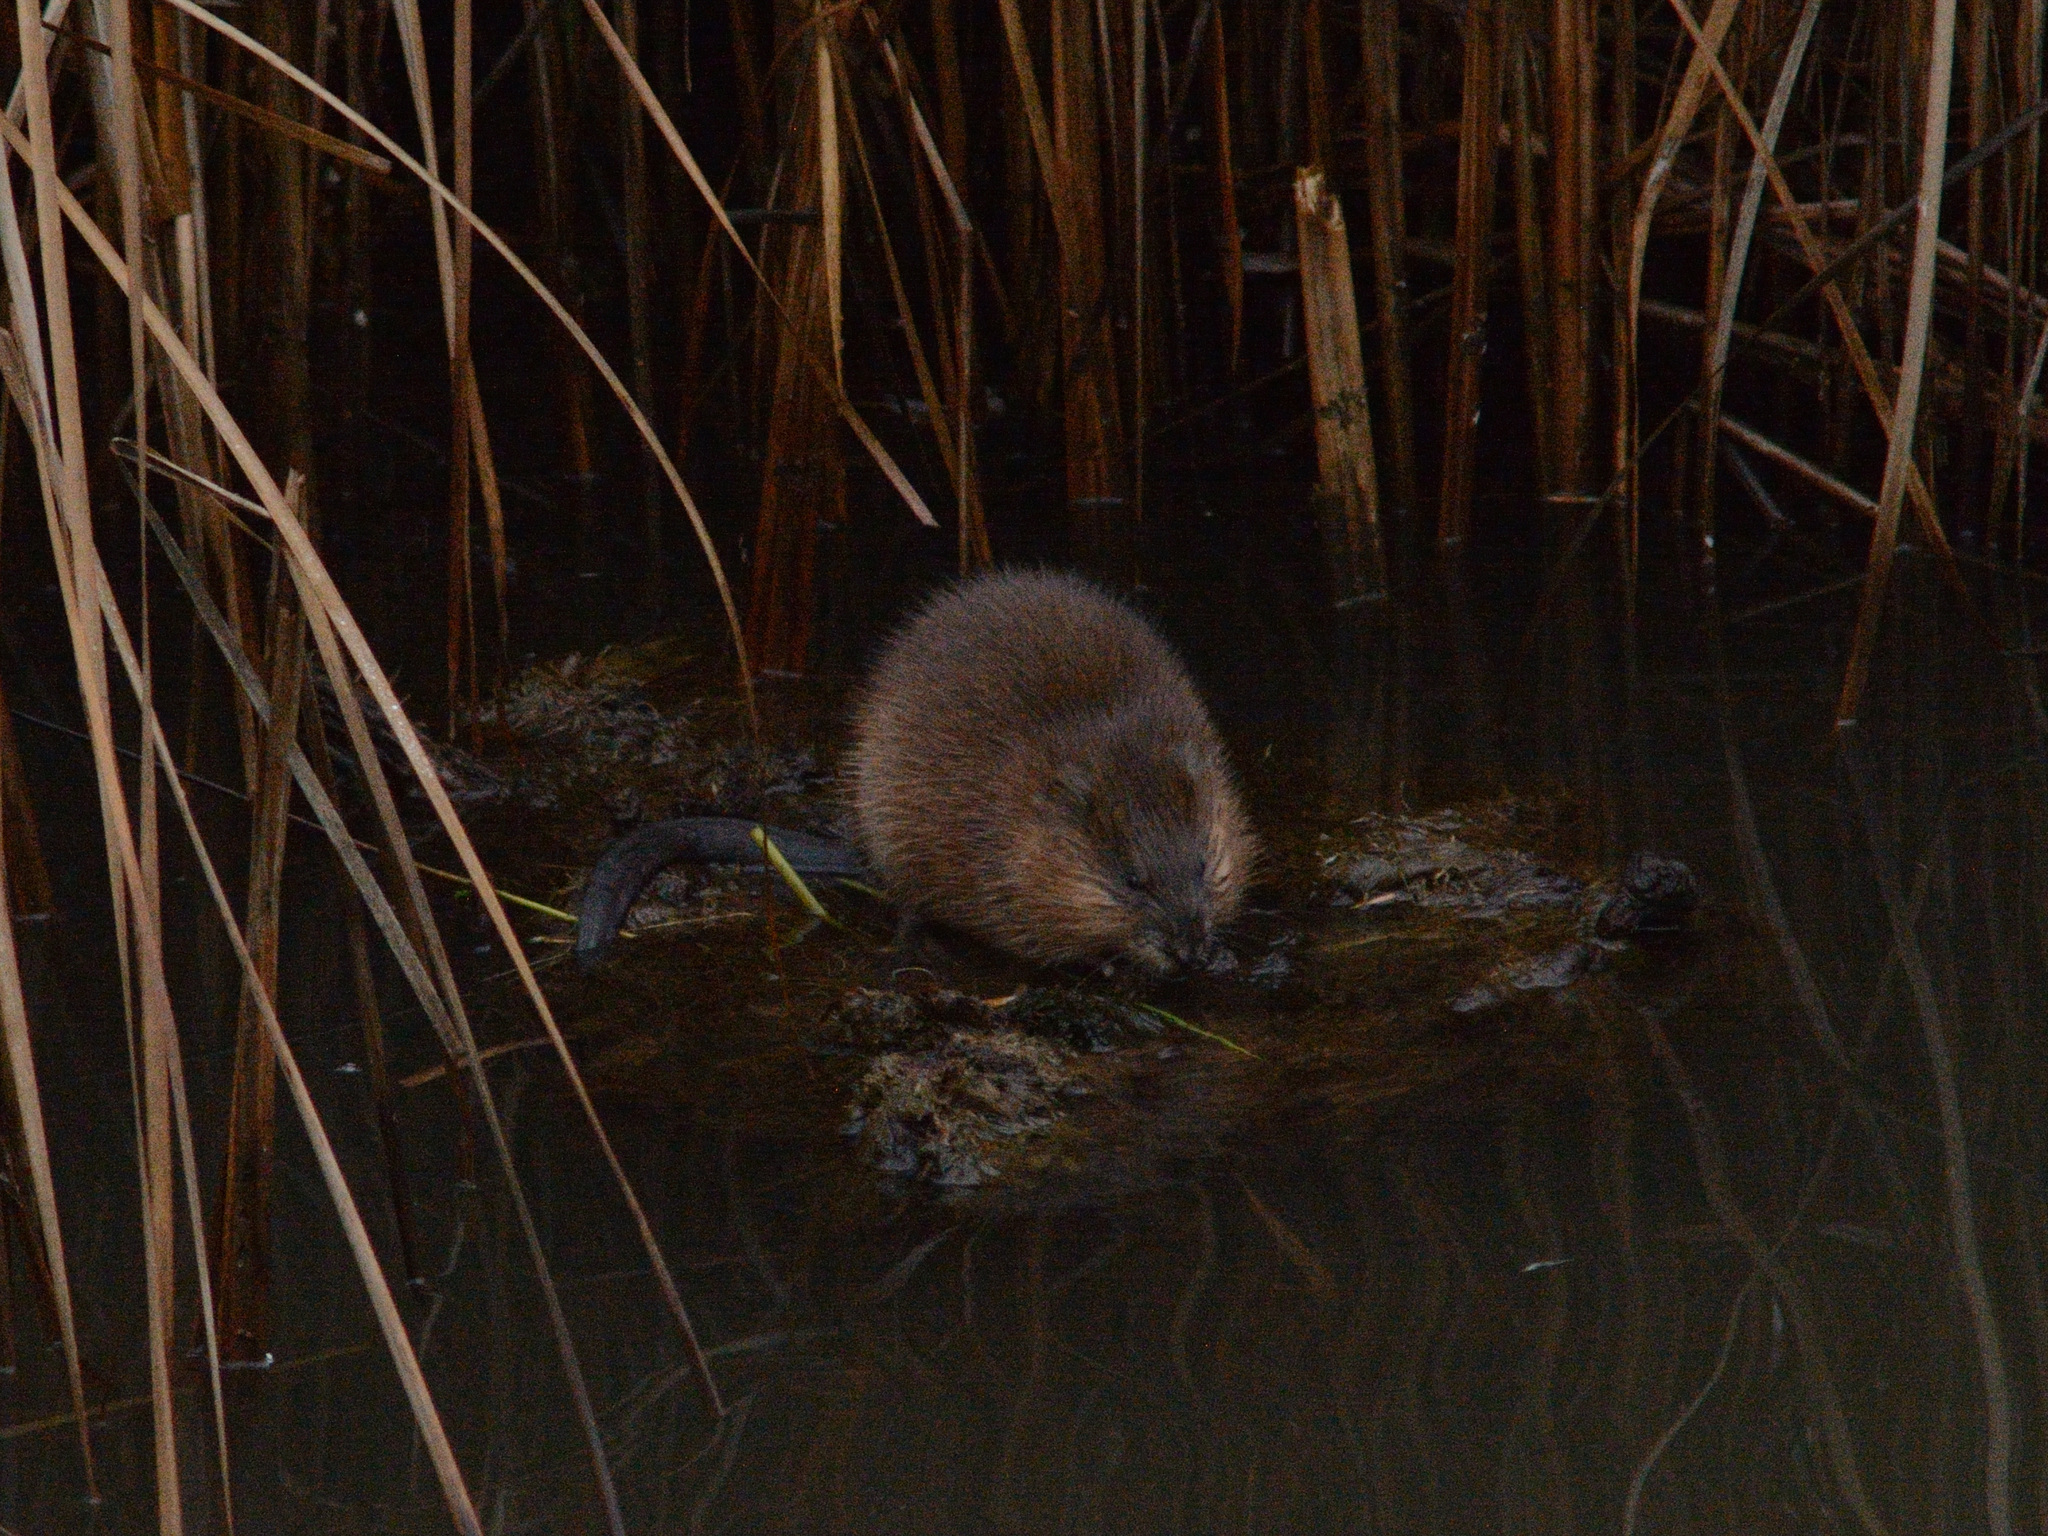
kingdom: Animalia
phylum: Chordata
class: Mammalia
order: Rodentia
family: Cricetidae
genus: Ondatra
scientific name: Ondatra zibethicus
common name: Muskrat
